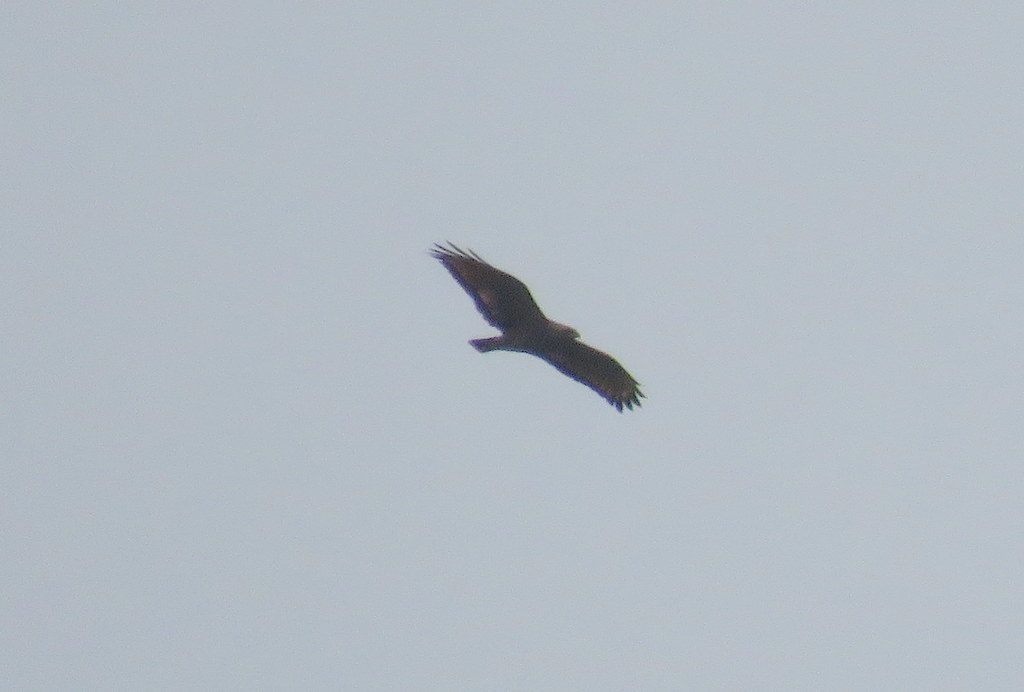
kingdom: Animalia
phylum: Chordata
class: Aves
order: Accipitriformes
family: Accipitridae
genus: Buteogallus
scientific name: Buteogallus meridionalis
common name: Savanna hawk
